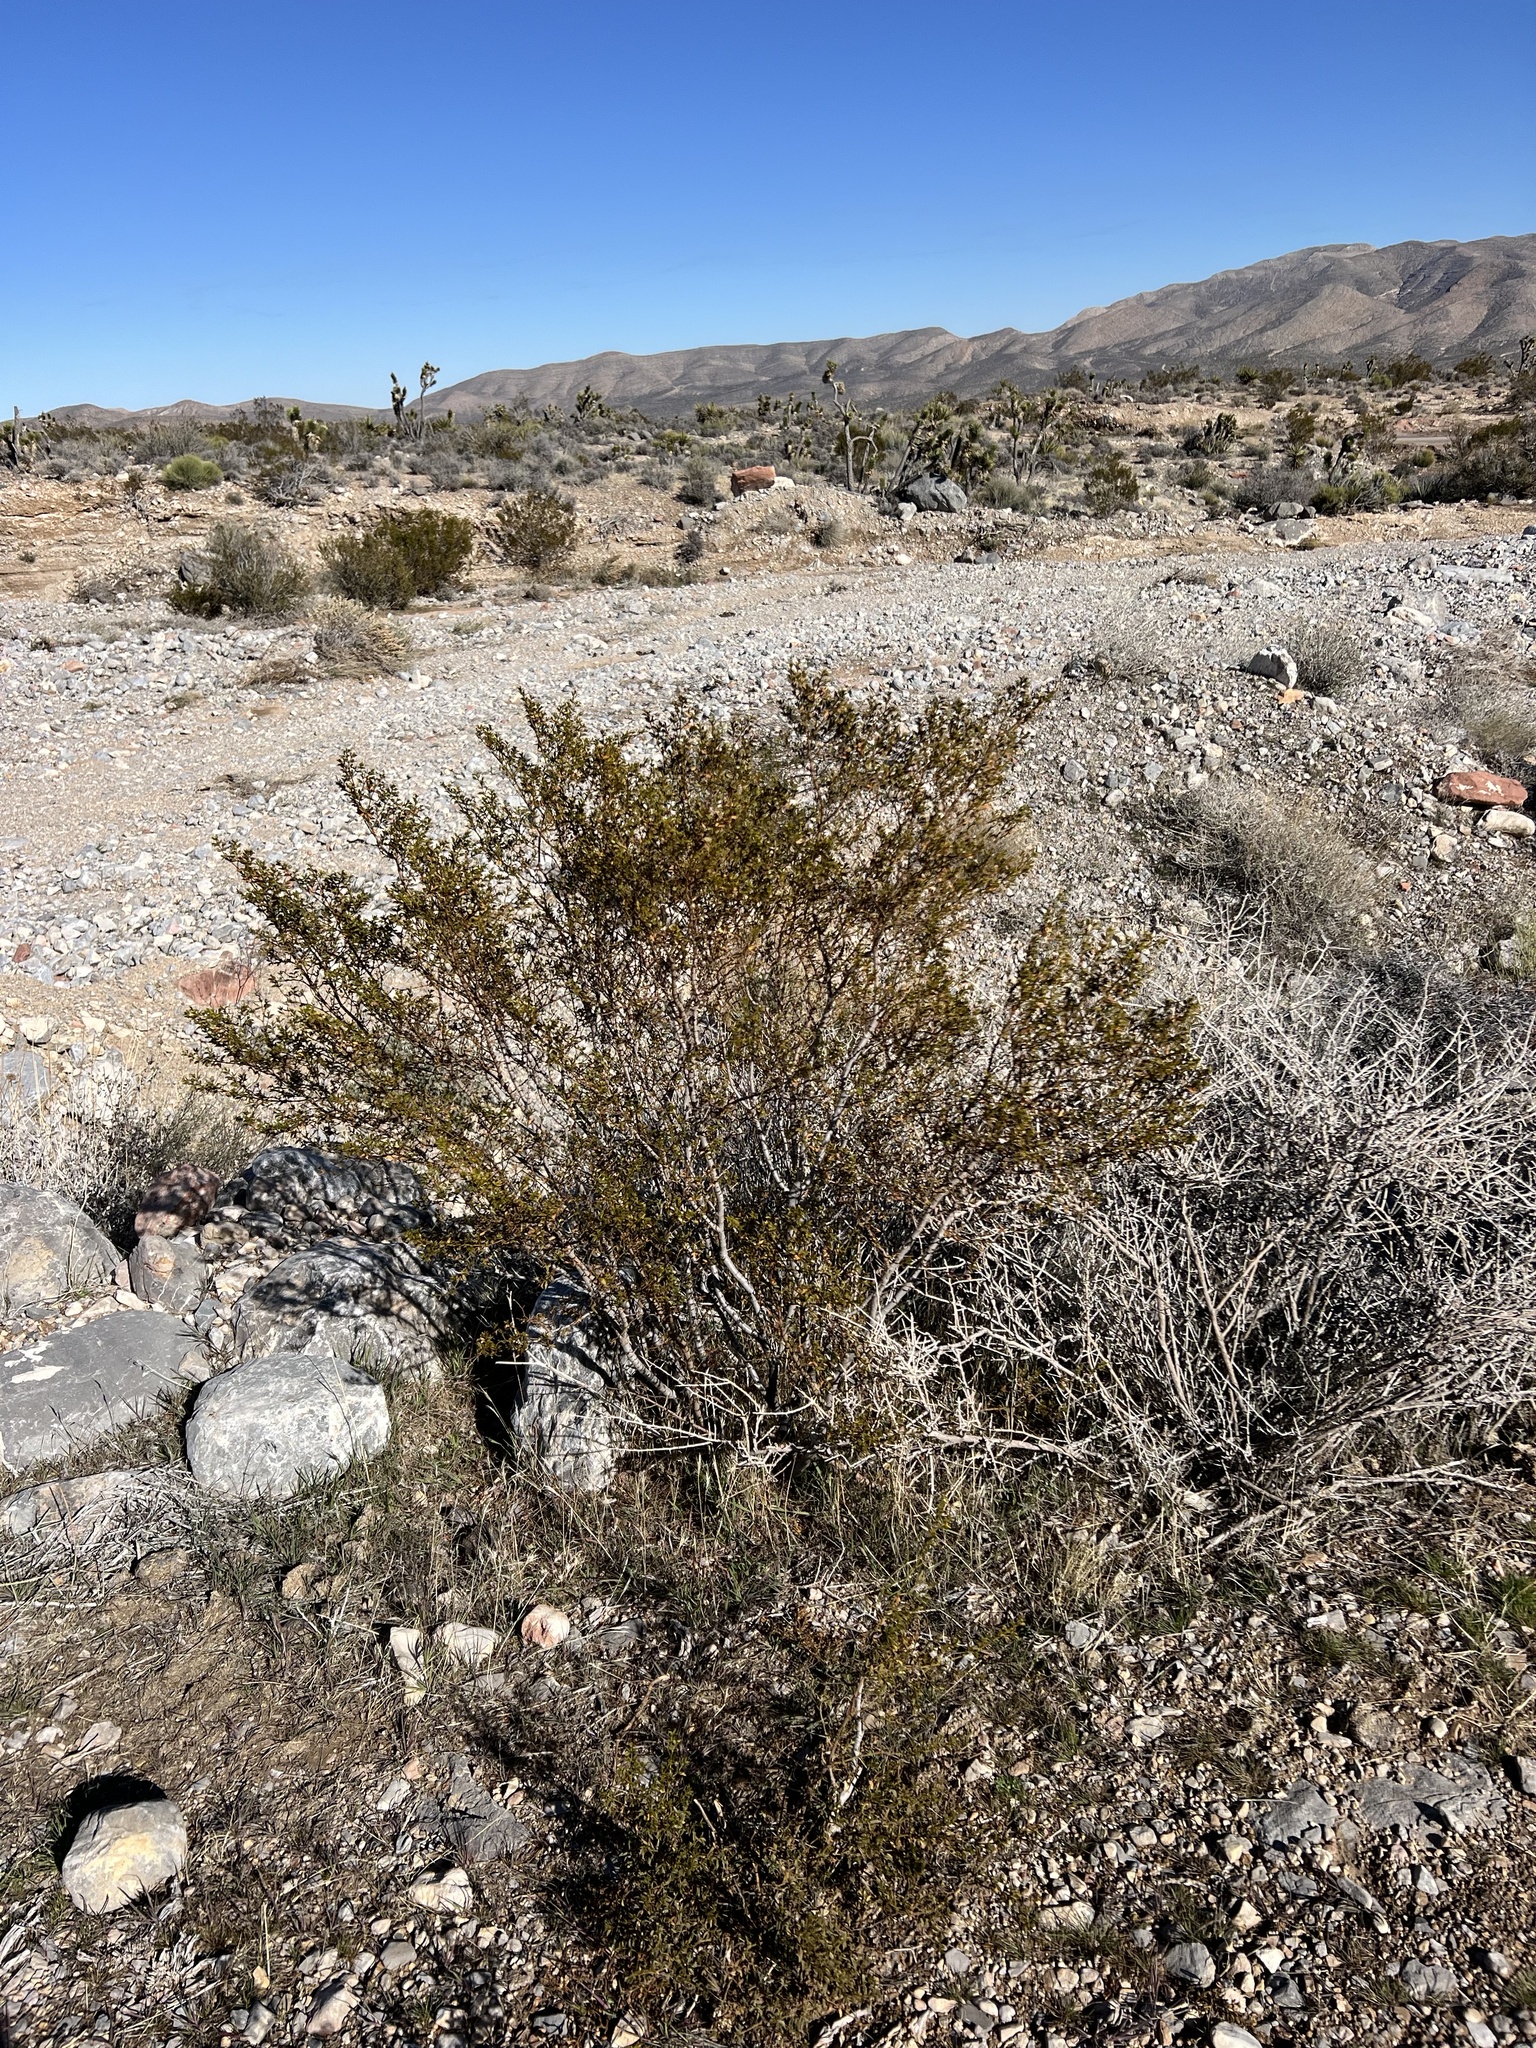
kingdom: Plantae
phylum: Tracheophyta
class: Magnoliopsida
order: Zygophyllales
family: Zygophyllaceae
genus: Larrea
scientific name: Larrea tridentata
